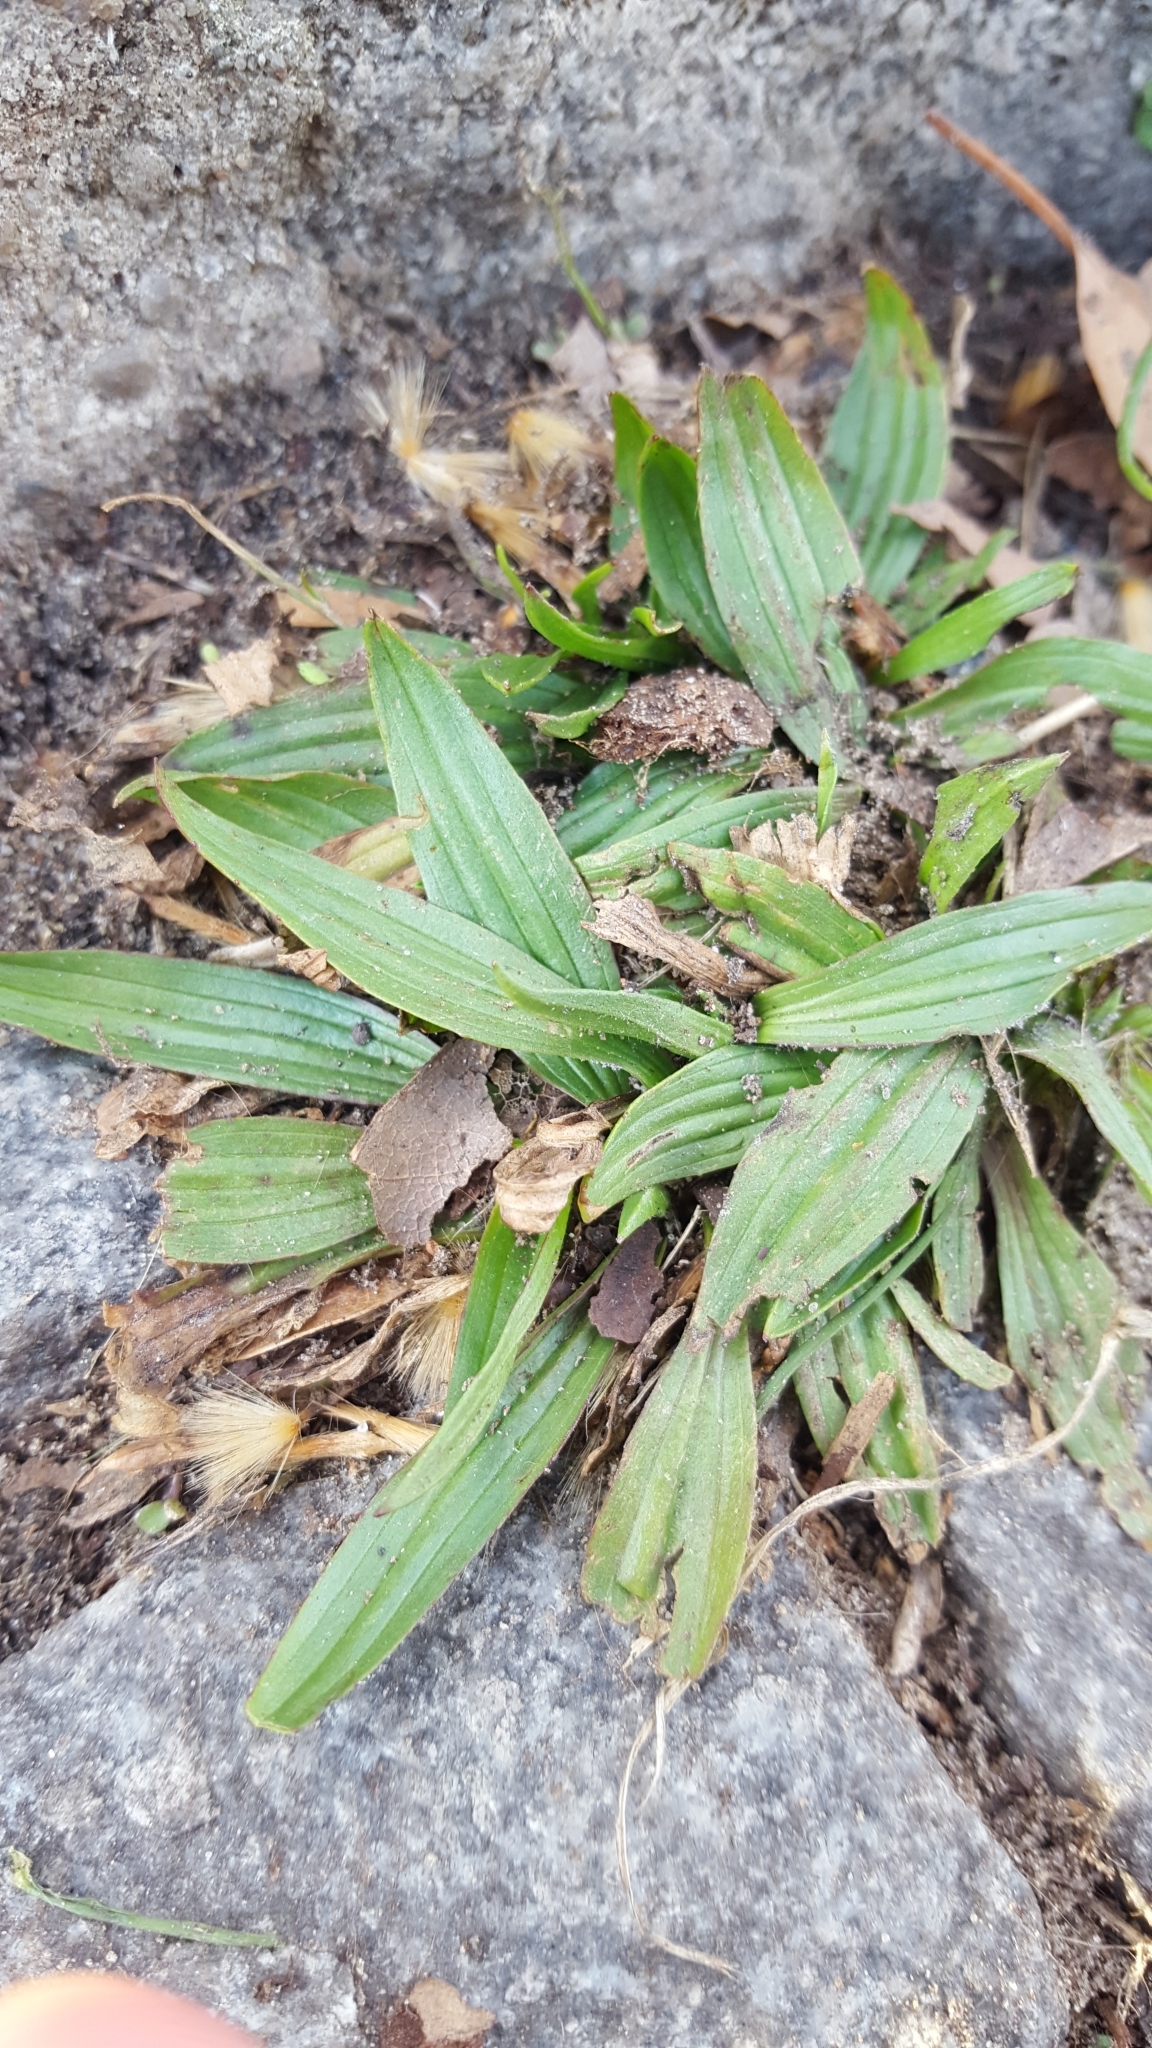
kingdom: Plantae
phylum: Tracheophyta
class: Magnoliopsida
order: Lamiales
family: Plantaginaceae
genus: Plantago
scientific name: Plantago lanceolata
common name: Ribwort plantain
